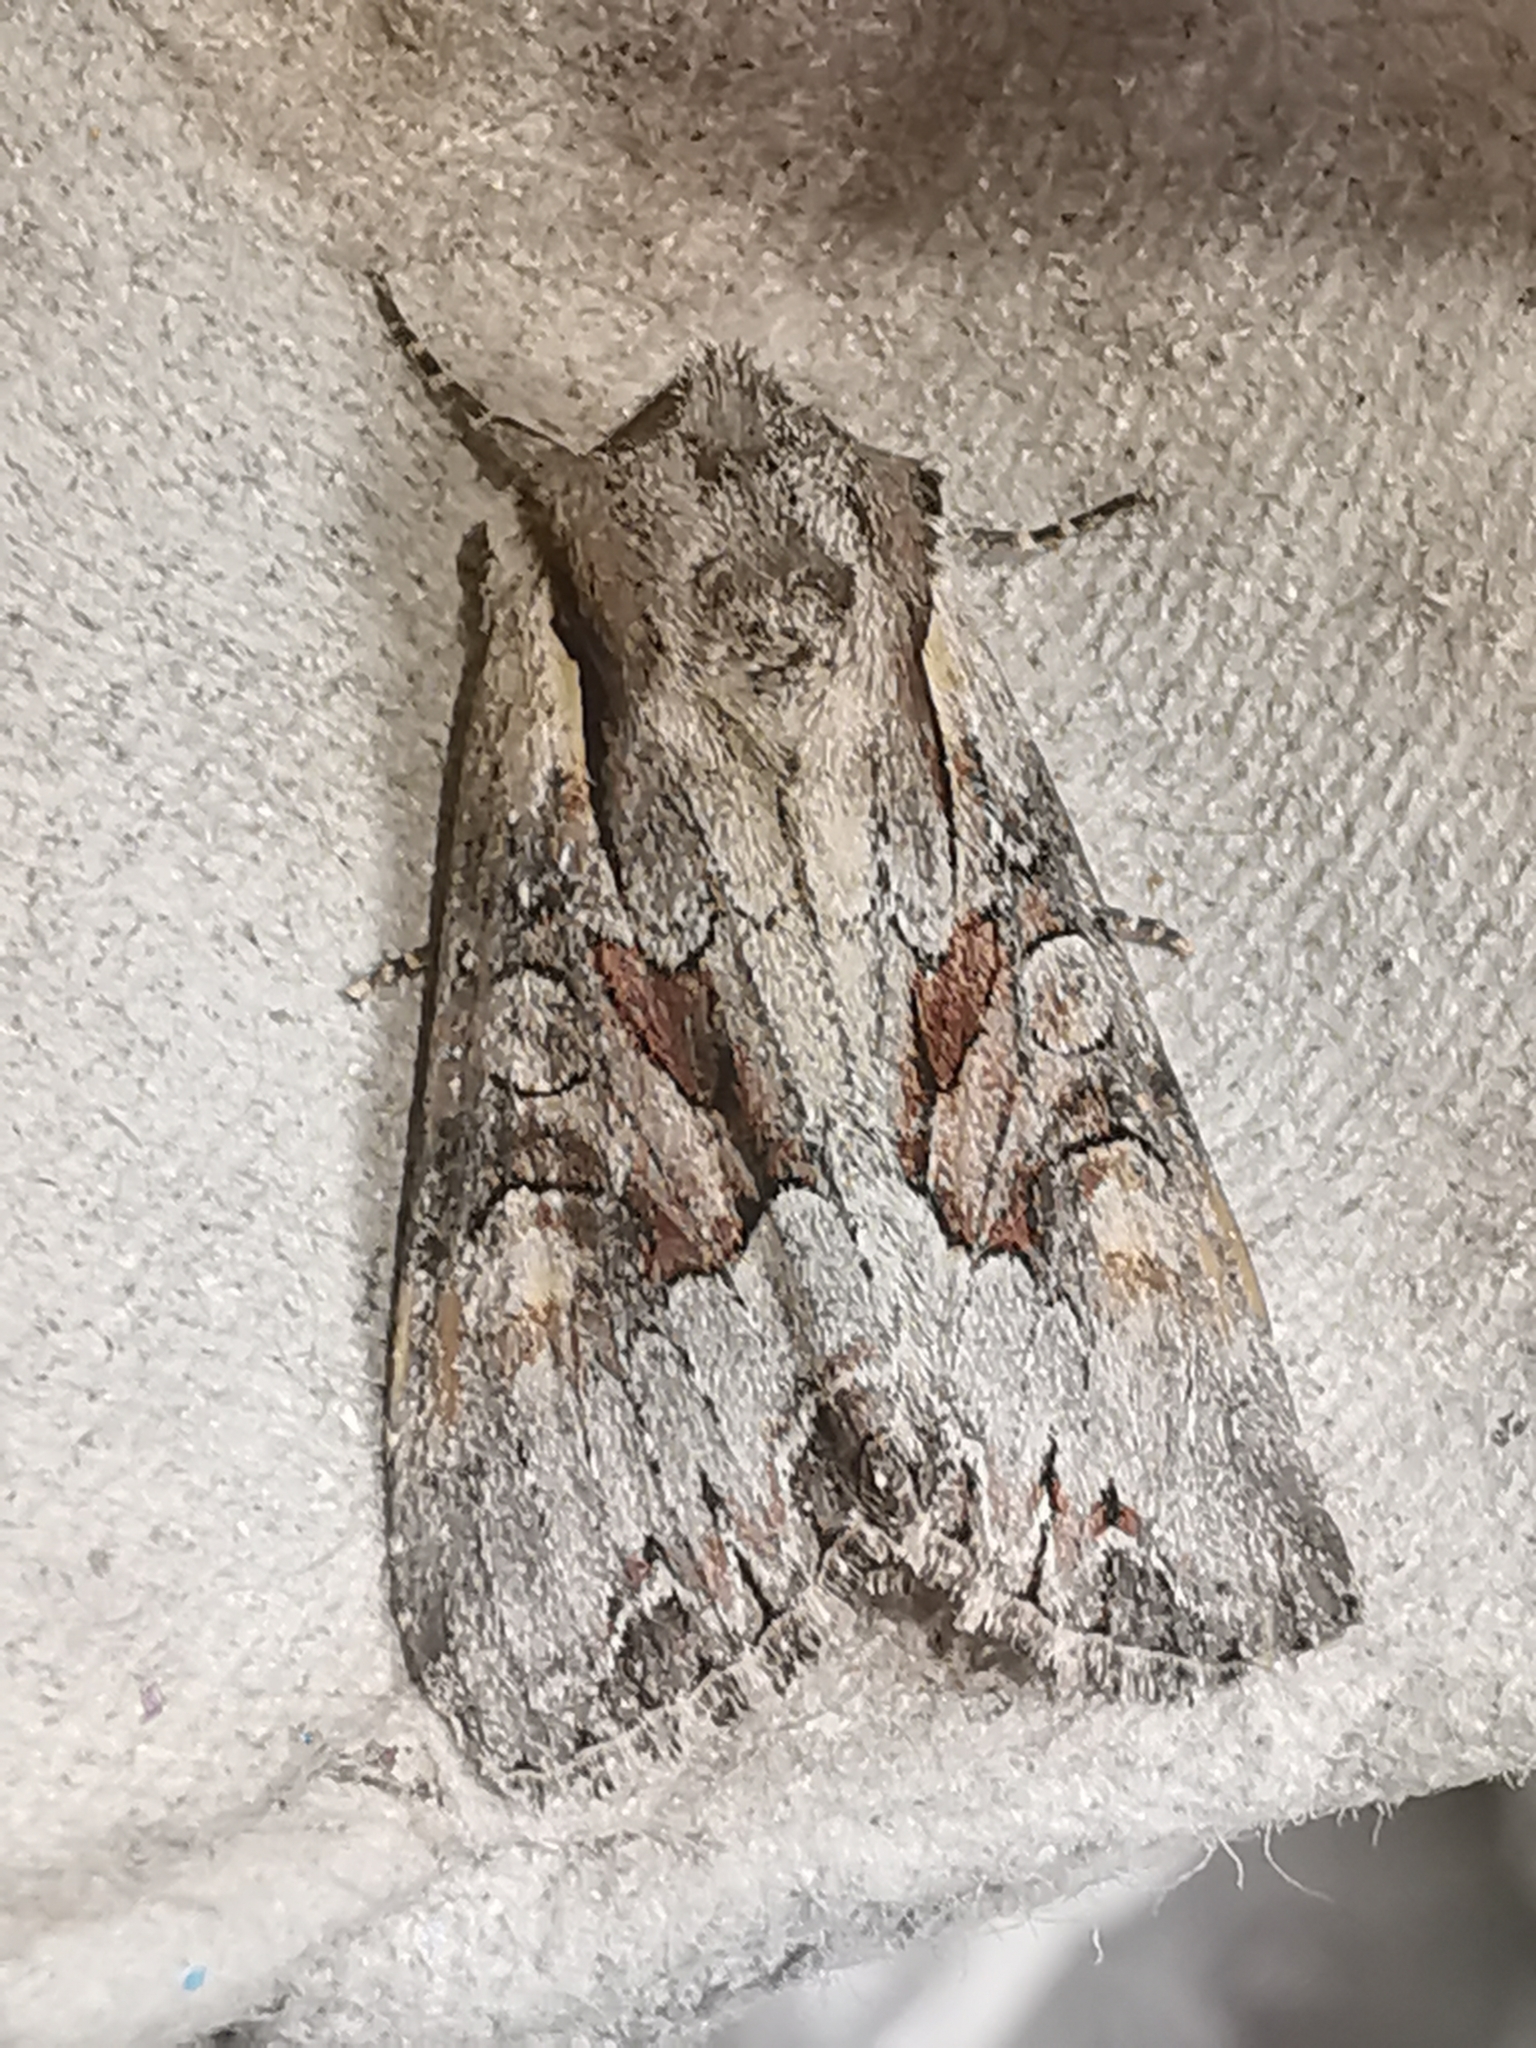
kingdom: Animalia
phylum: Arthropoda
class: Insecta
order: Lepidoptera
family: Noctuidae
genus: Lacanobia
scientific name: Lacanobia w-latinum
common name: Light brocade
